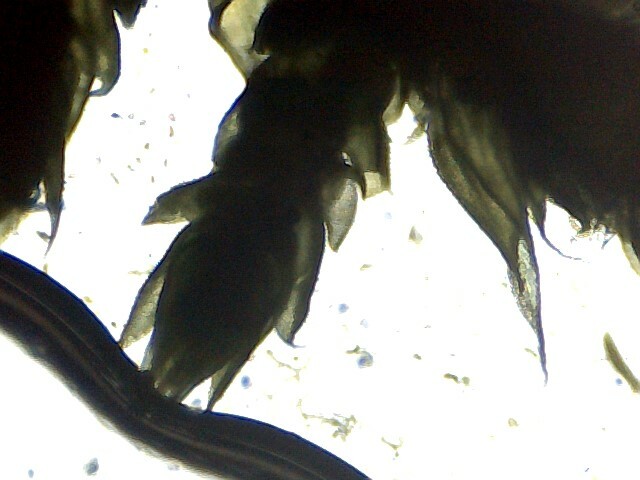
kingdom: Plantae
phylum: Bryophyta
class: Bryopsida
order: Hypnales
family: Thuidiaceae
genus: Thuidium
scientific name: Thuidium assimile
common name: Philibert's fern moss
